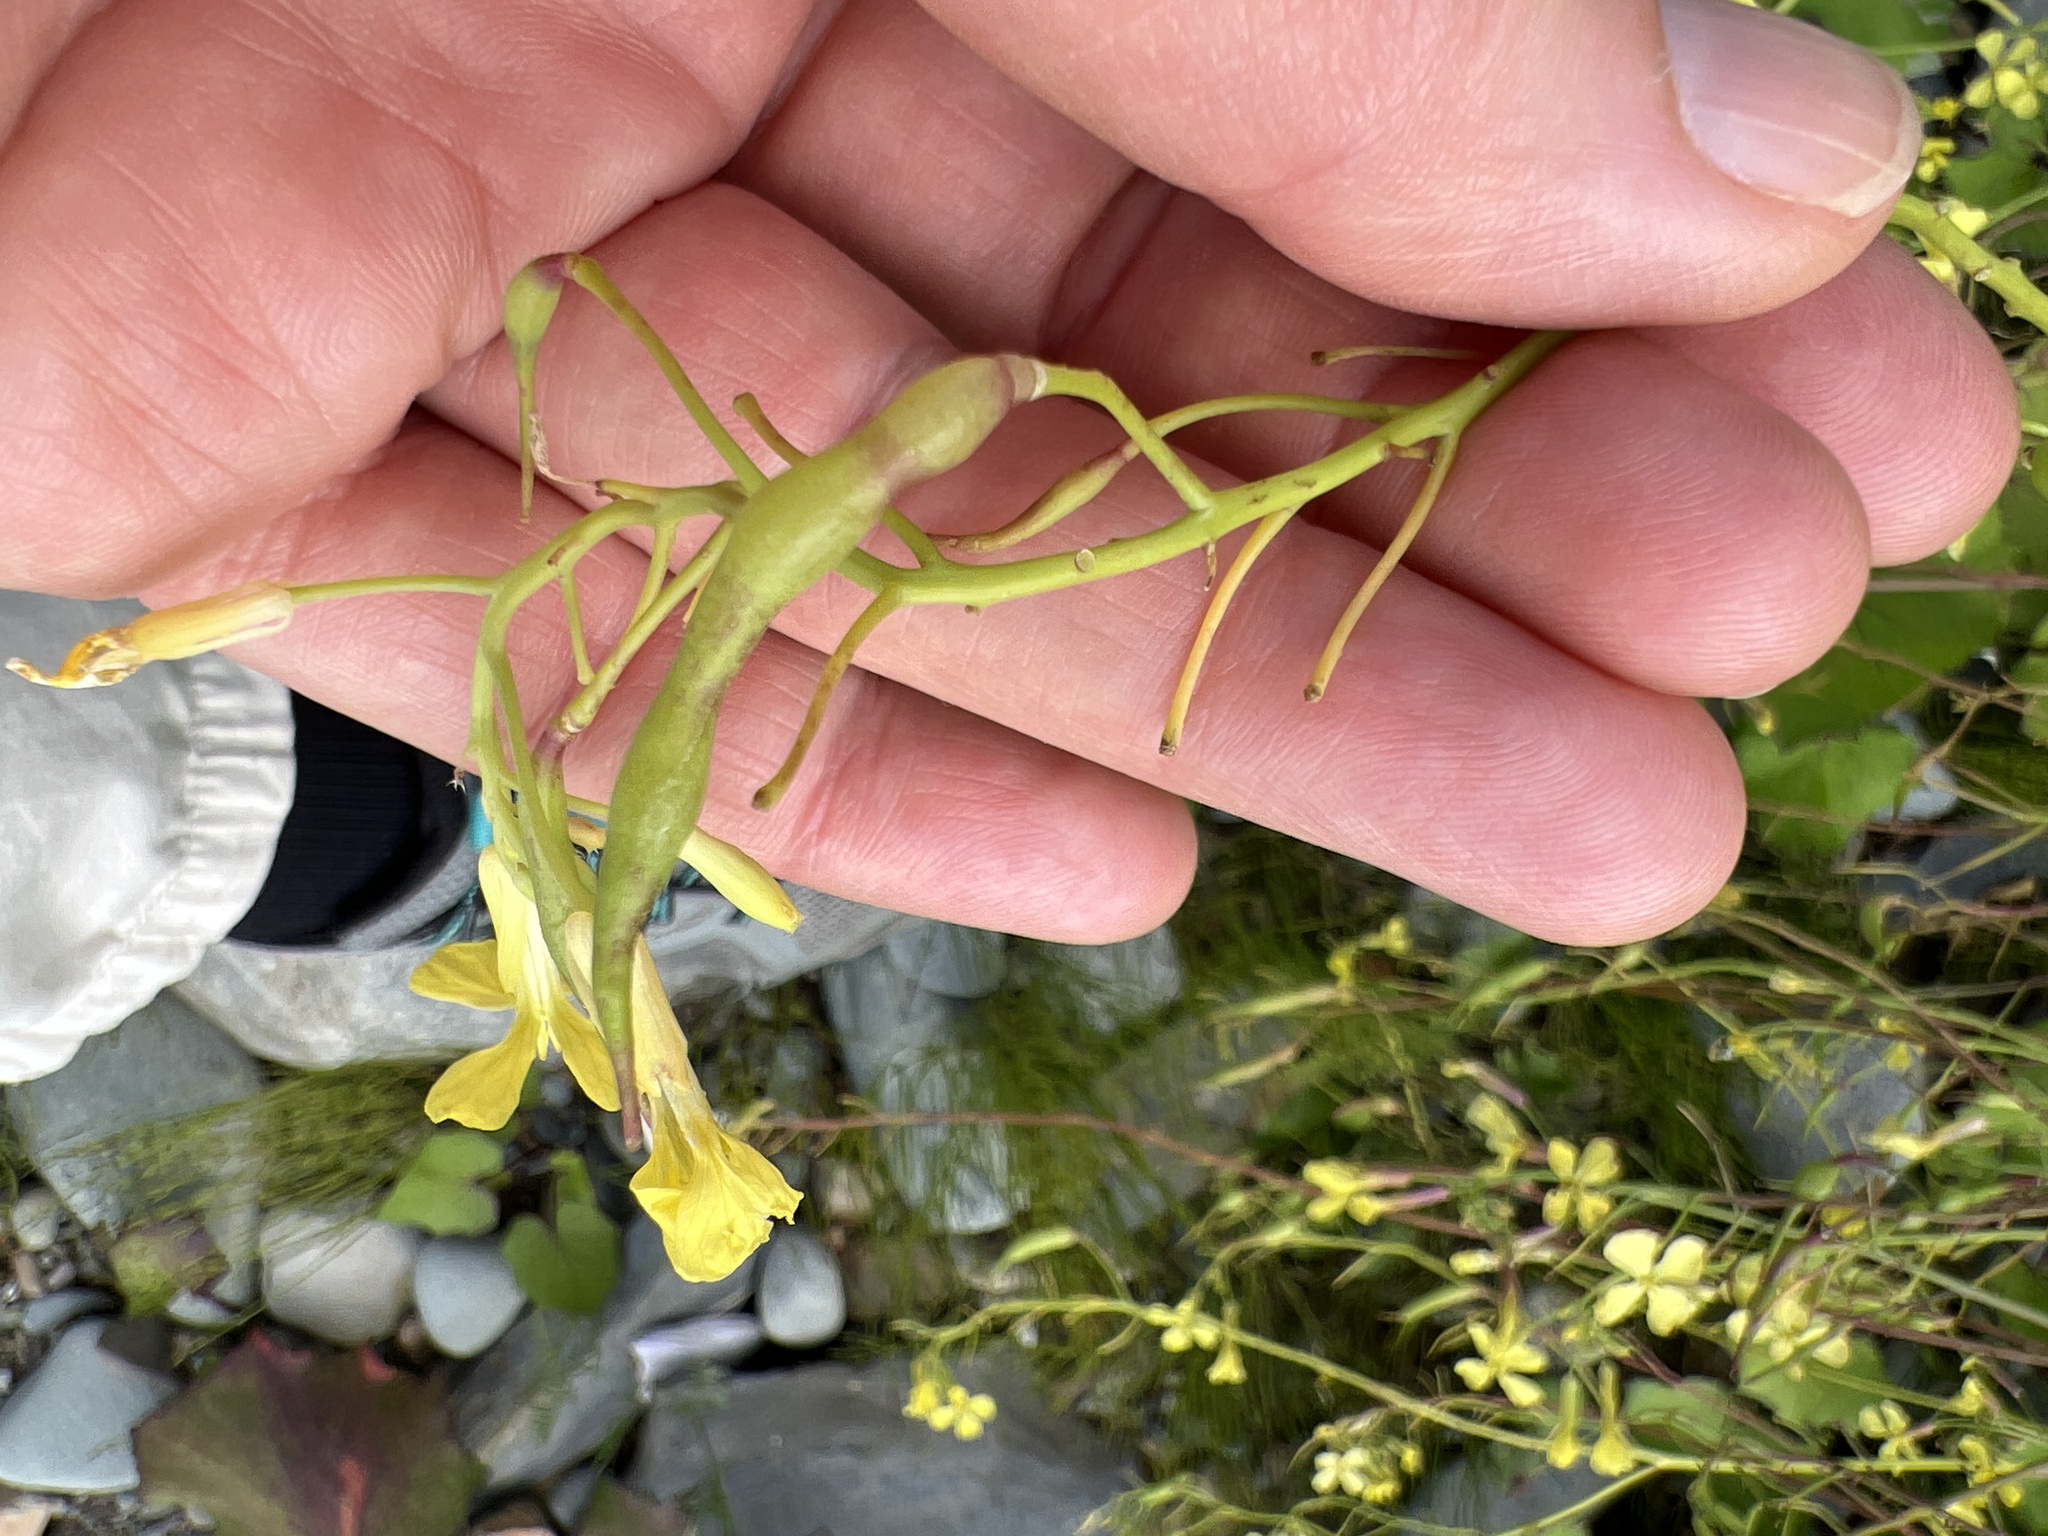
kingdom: Plantae
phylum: Tracheophyta
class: Magnoliopsida
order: Brassicales
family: Brassicaceae
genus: Raphanus
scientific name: Raphanus raphanistrum
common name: Wild radish
